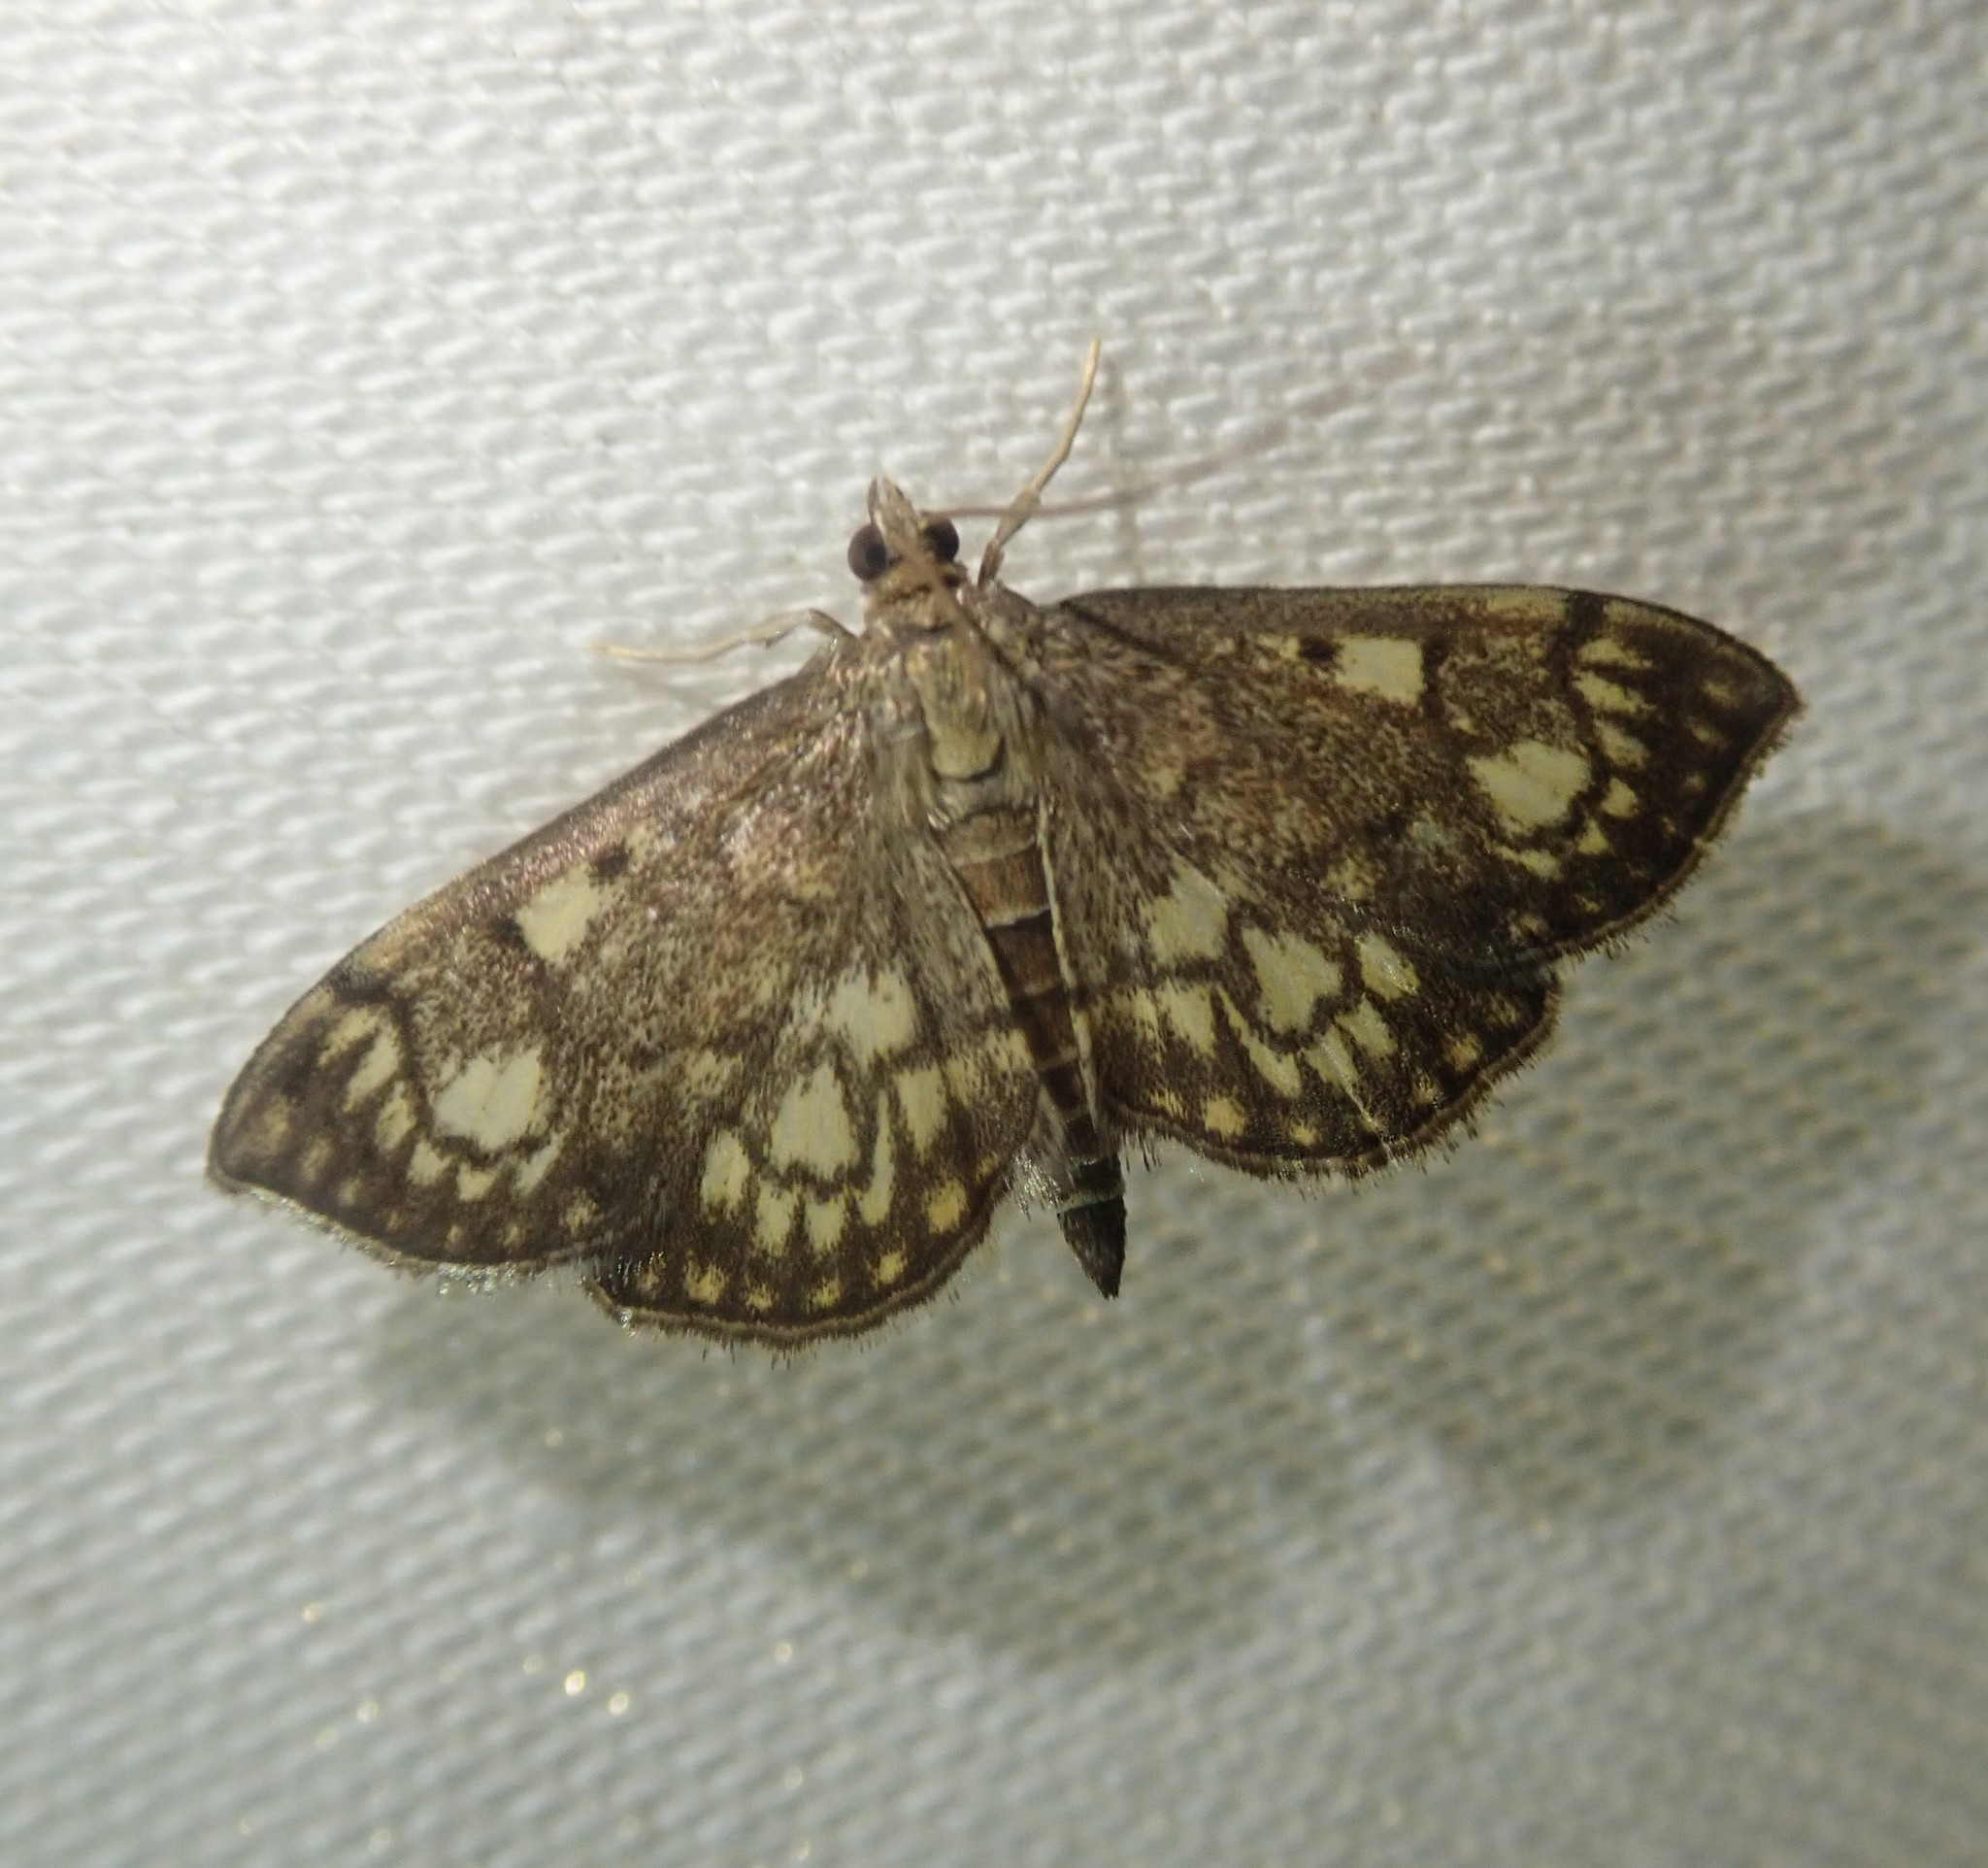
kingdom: Animalia
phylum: Arthropoda
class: Insecta
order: Lepidoptera
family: Crambidae
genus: Anania
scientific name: Anania stachydalis
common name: Woundwort pearl
